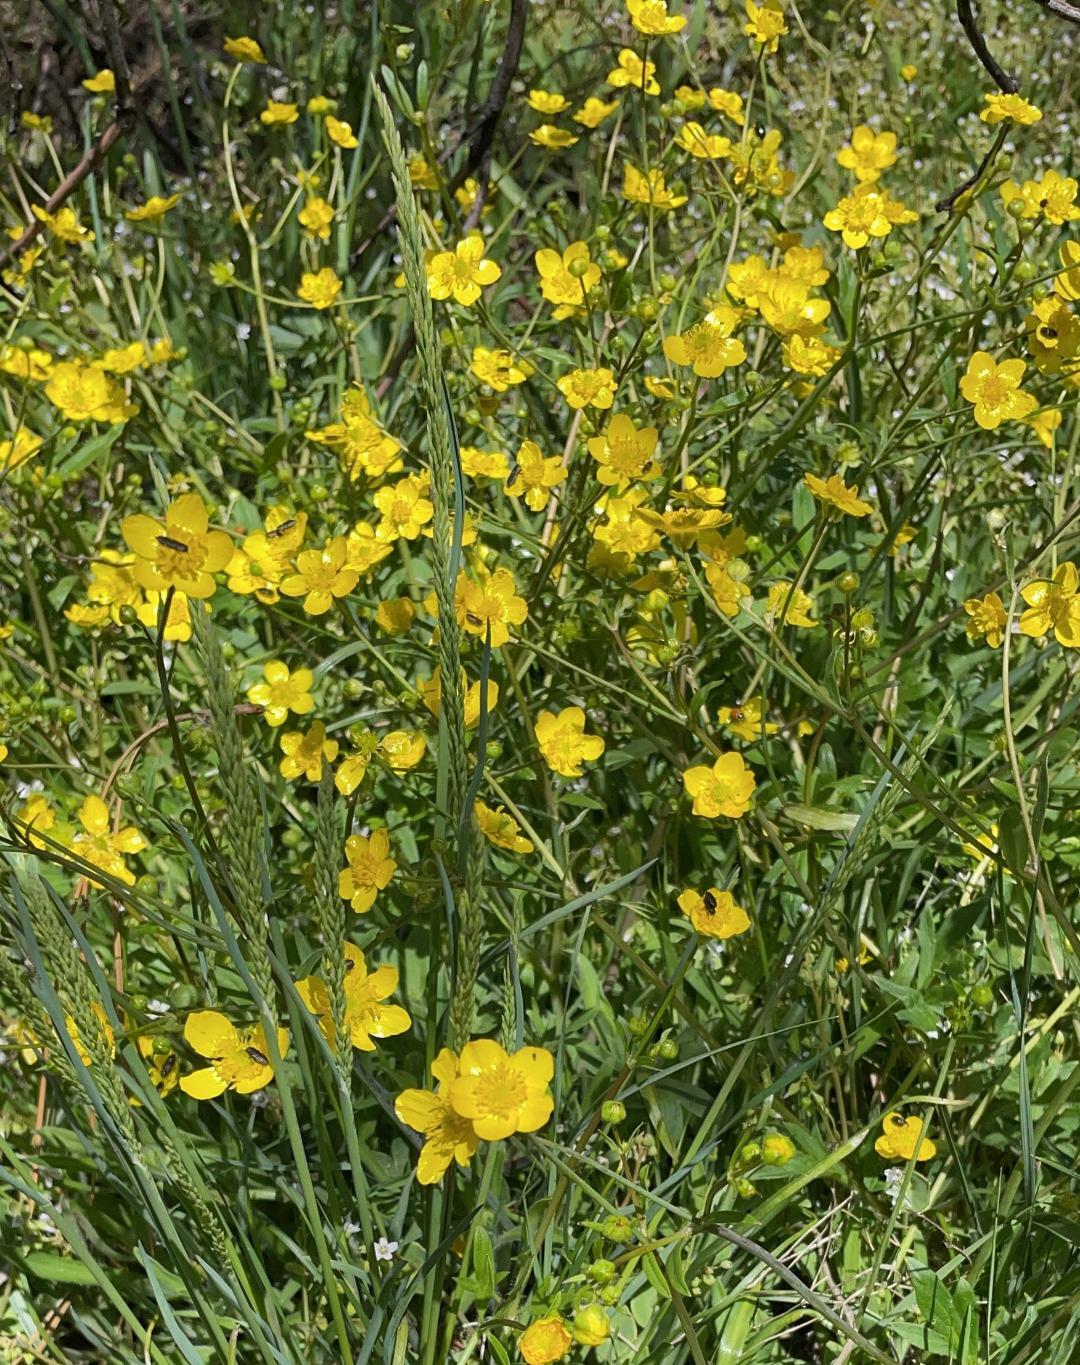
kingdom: Plantae
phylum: Tracheophyta
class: Magnoliopsida
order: Ranunculales
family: Ranunculaceae
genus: Ranunculus
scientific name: Ranunculus occidentalis
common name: Western buttercup
